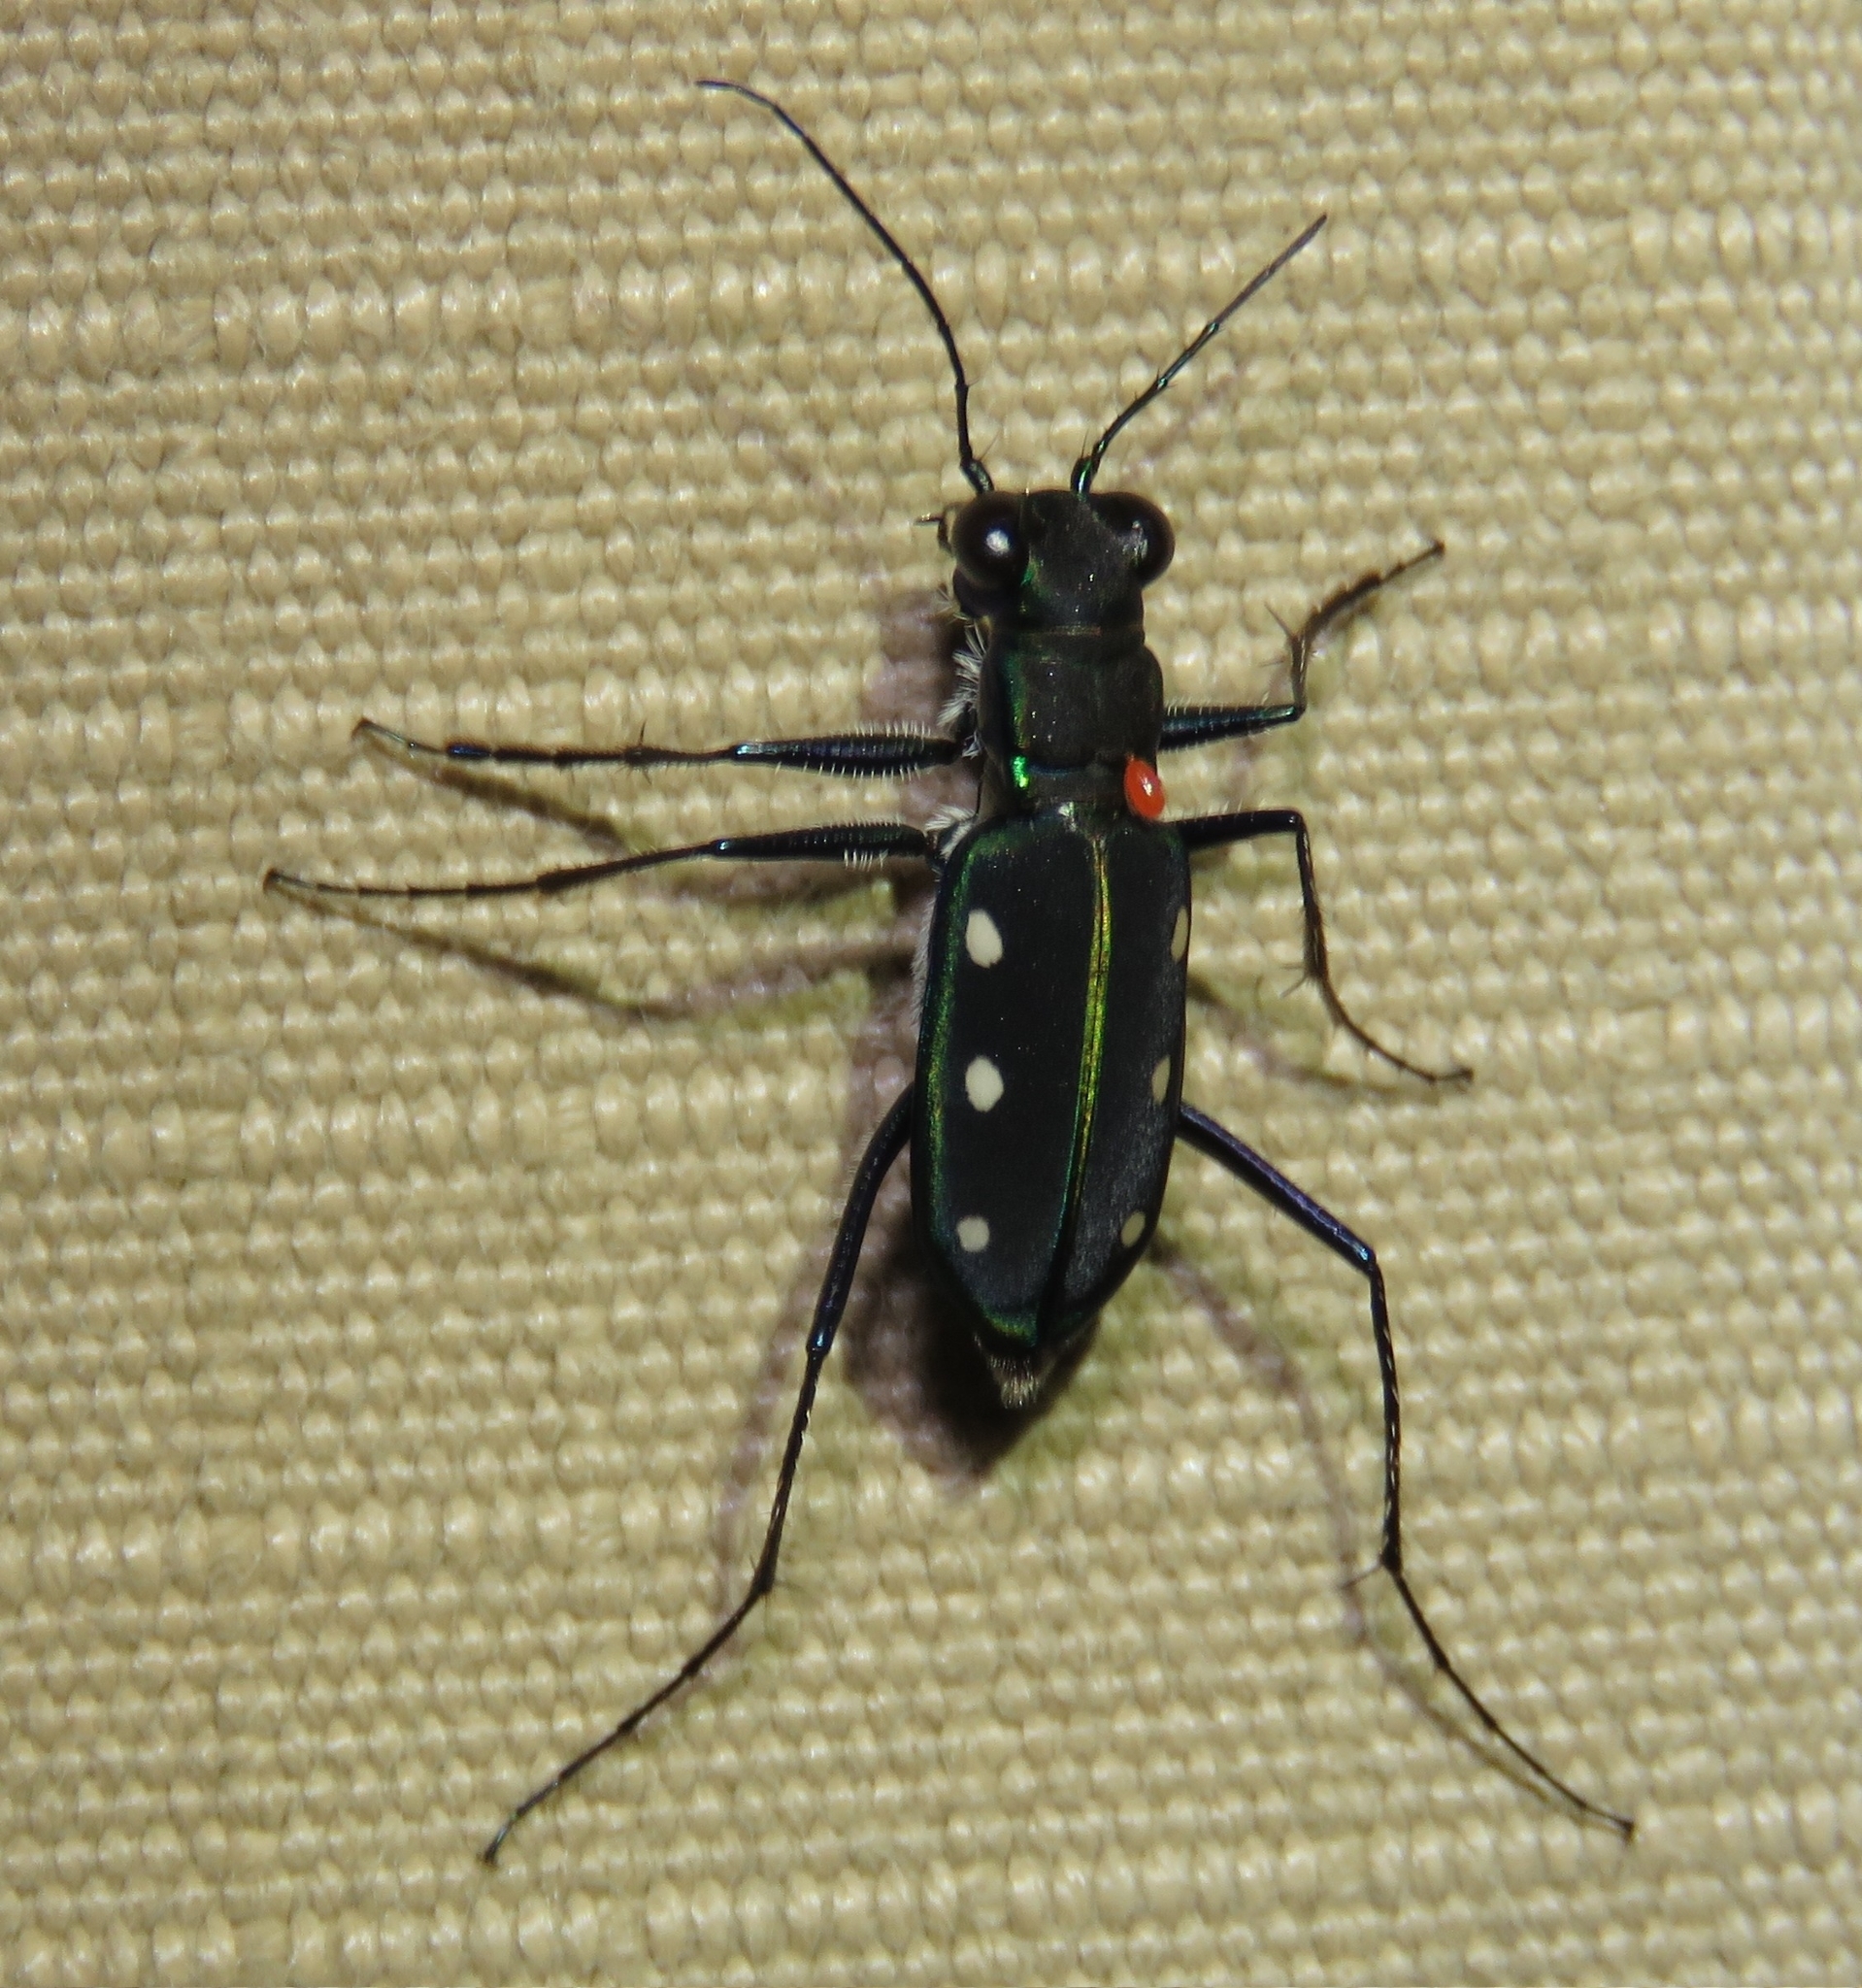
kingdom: Animalia
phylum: Arthropoda
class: Insecta
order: Coleoptera
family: Carabidae
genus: Cicindela
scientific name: Cicindela flavomaculata
